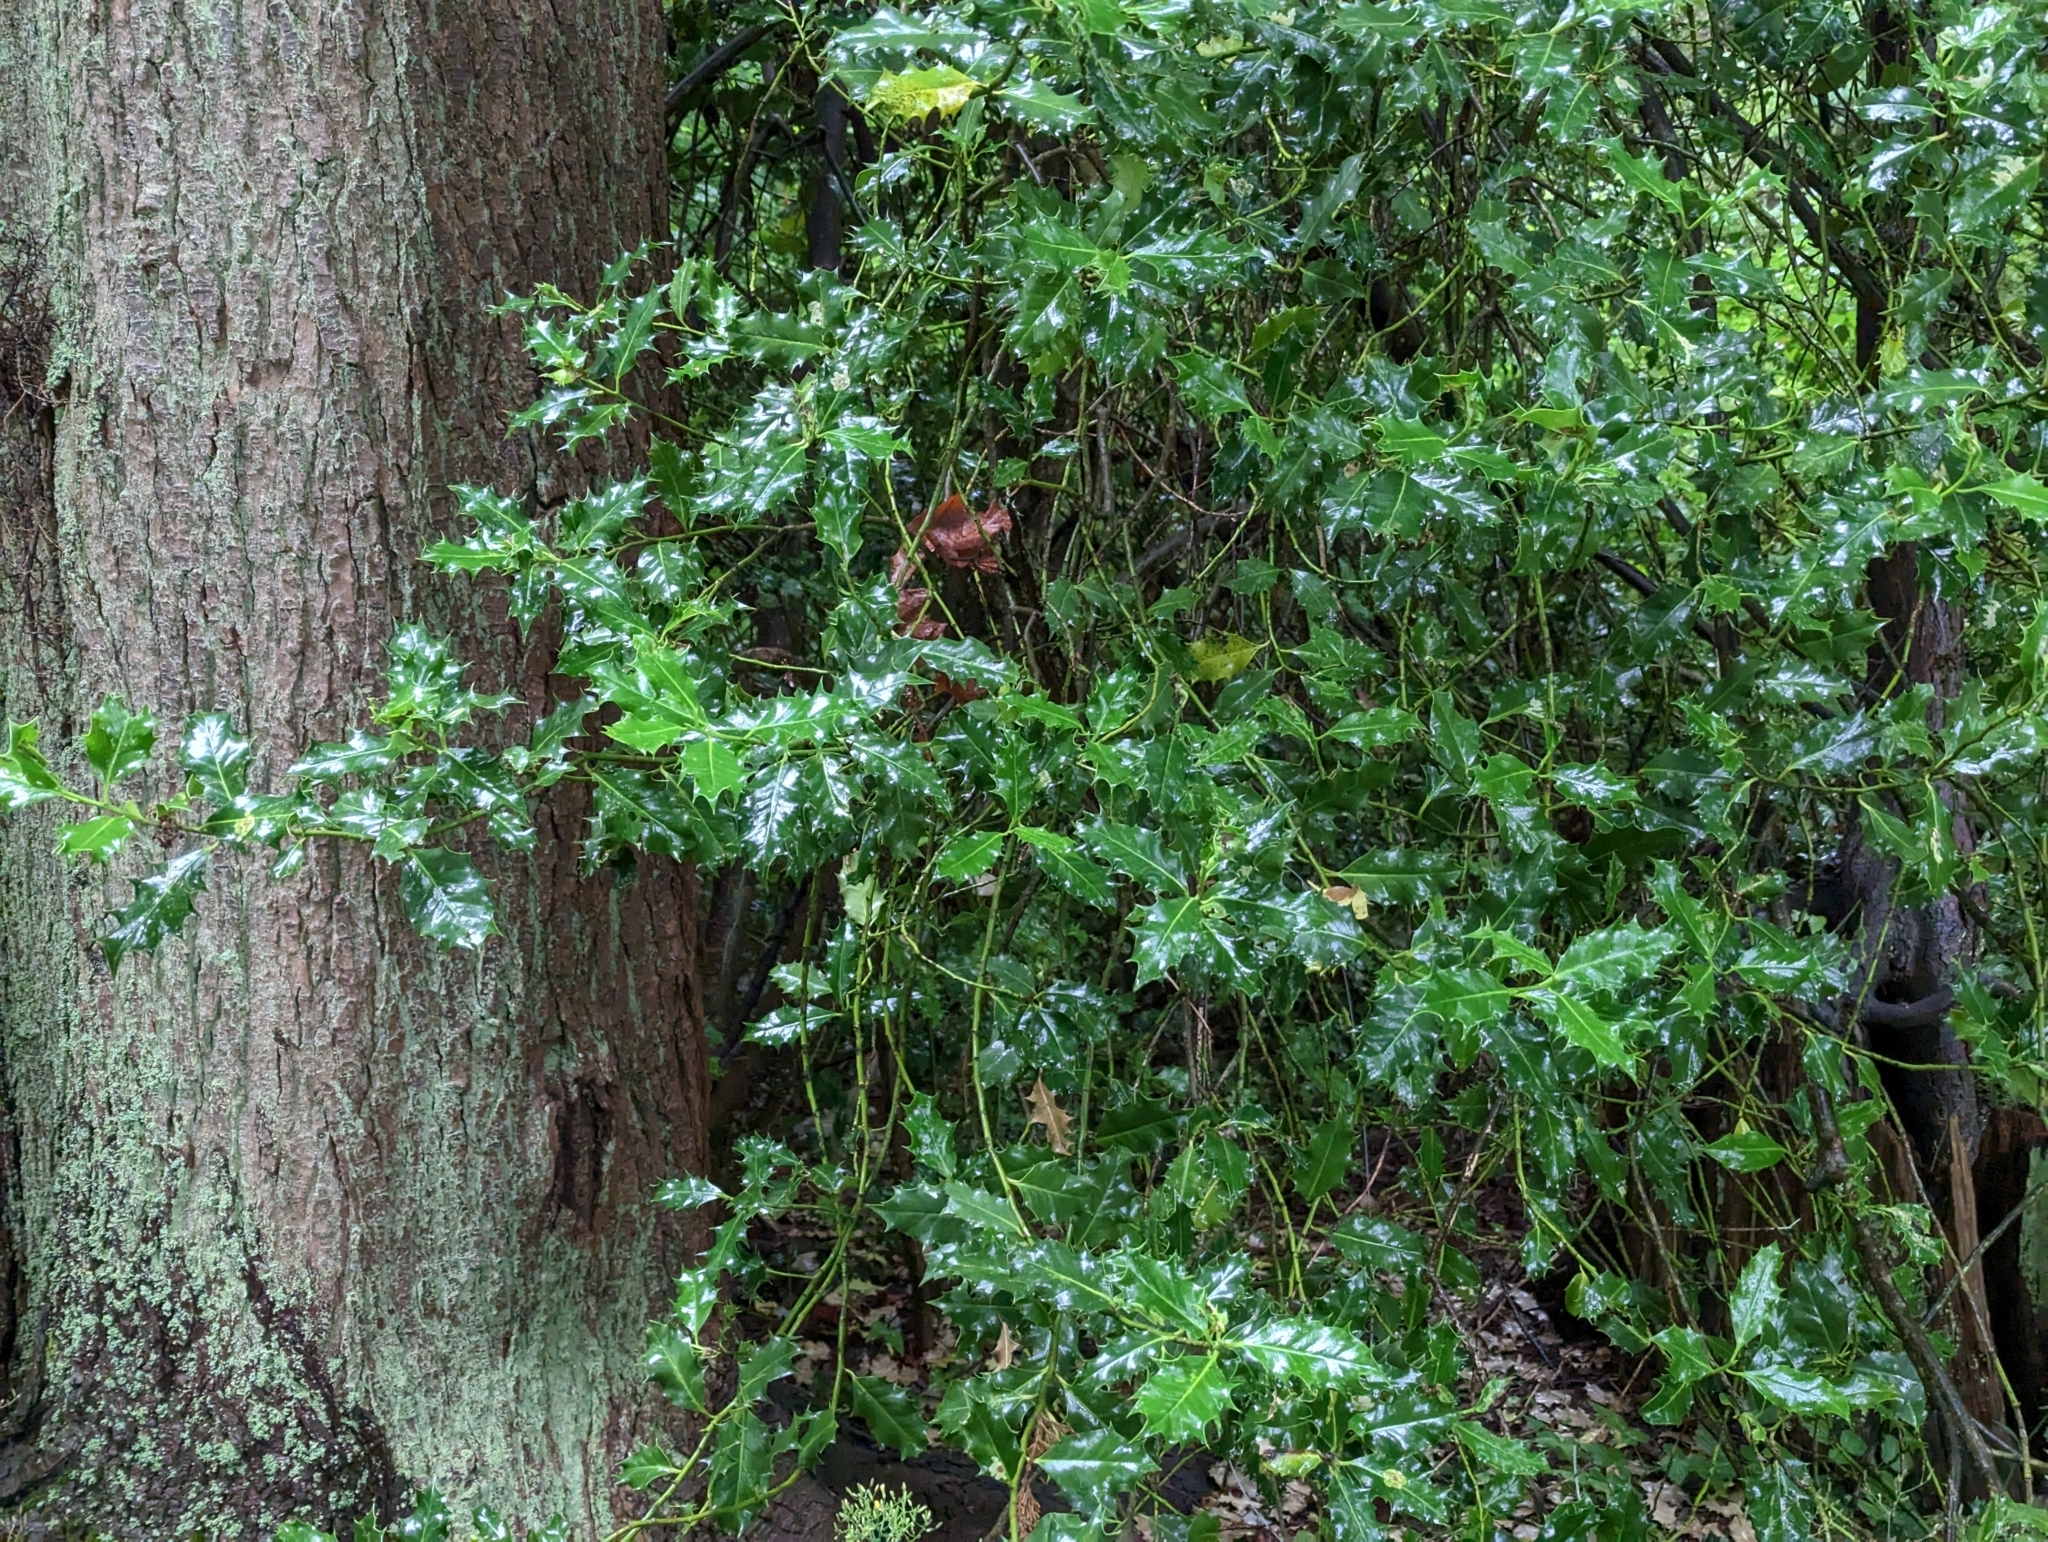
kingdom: Plantae
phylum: Tracheophyta
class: Magnoliopsida
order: Aquifoliales
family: Aquifoliaceae
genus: Ilex
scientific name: Ilex aquifolium
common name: English holly
